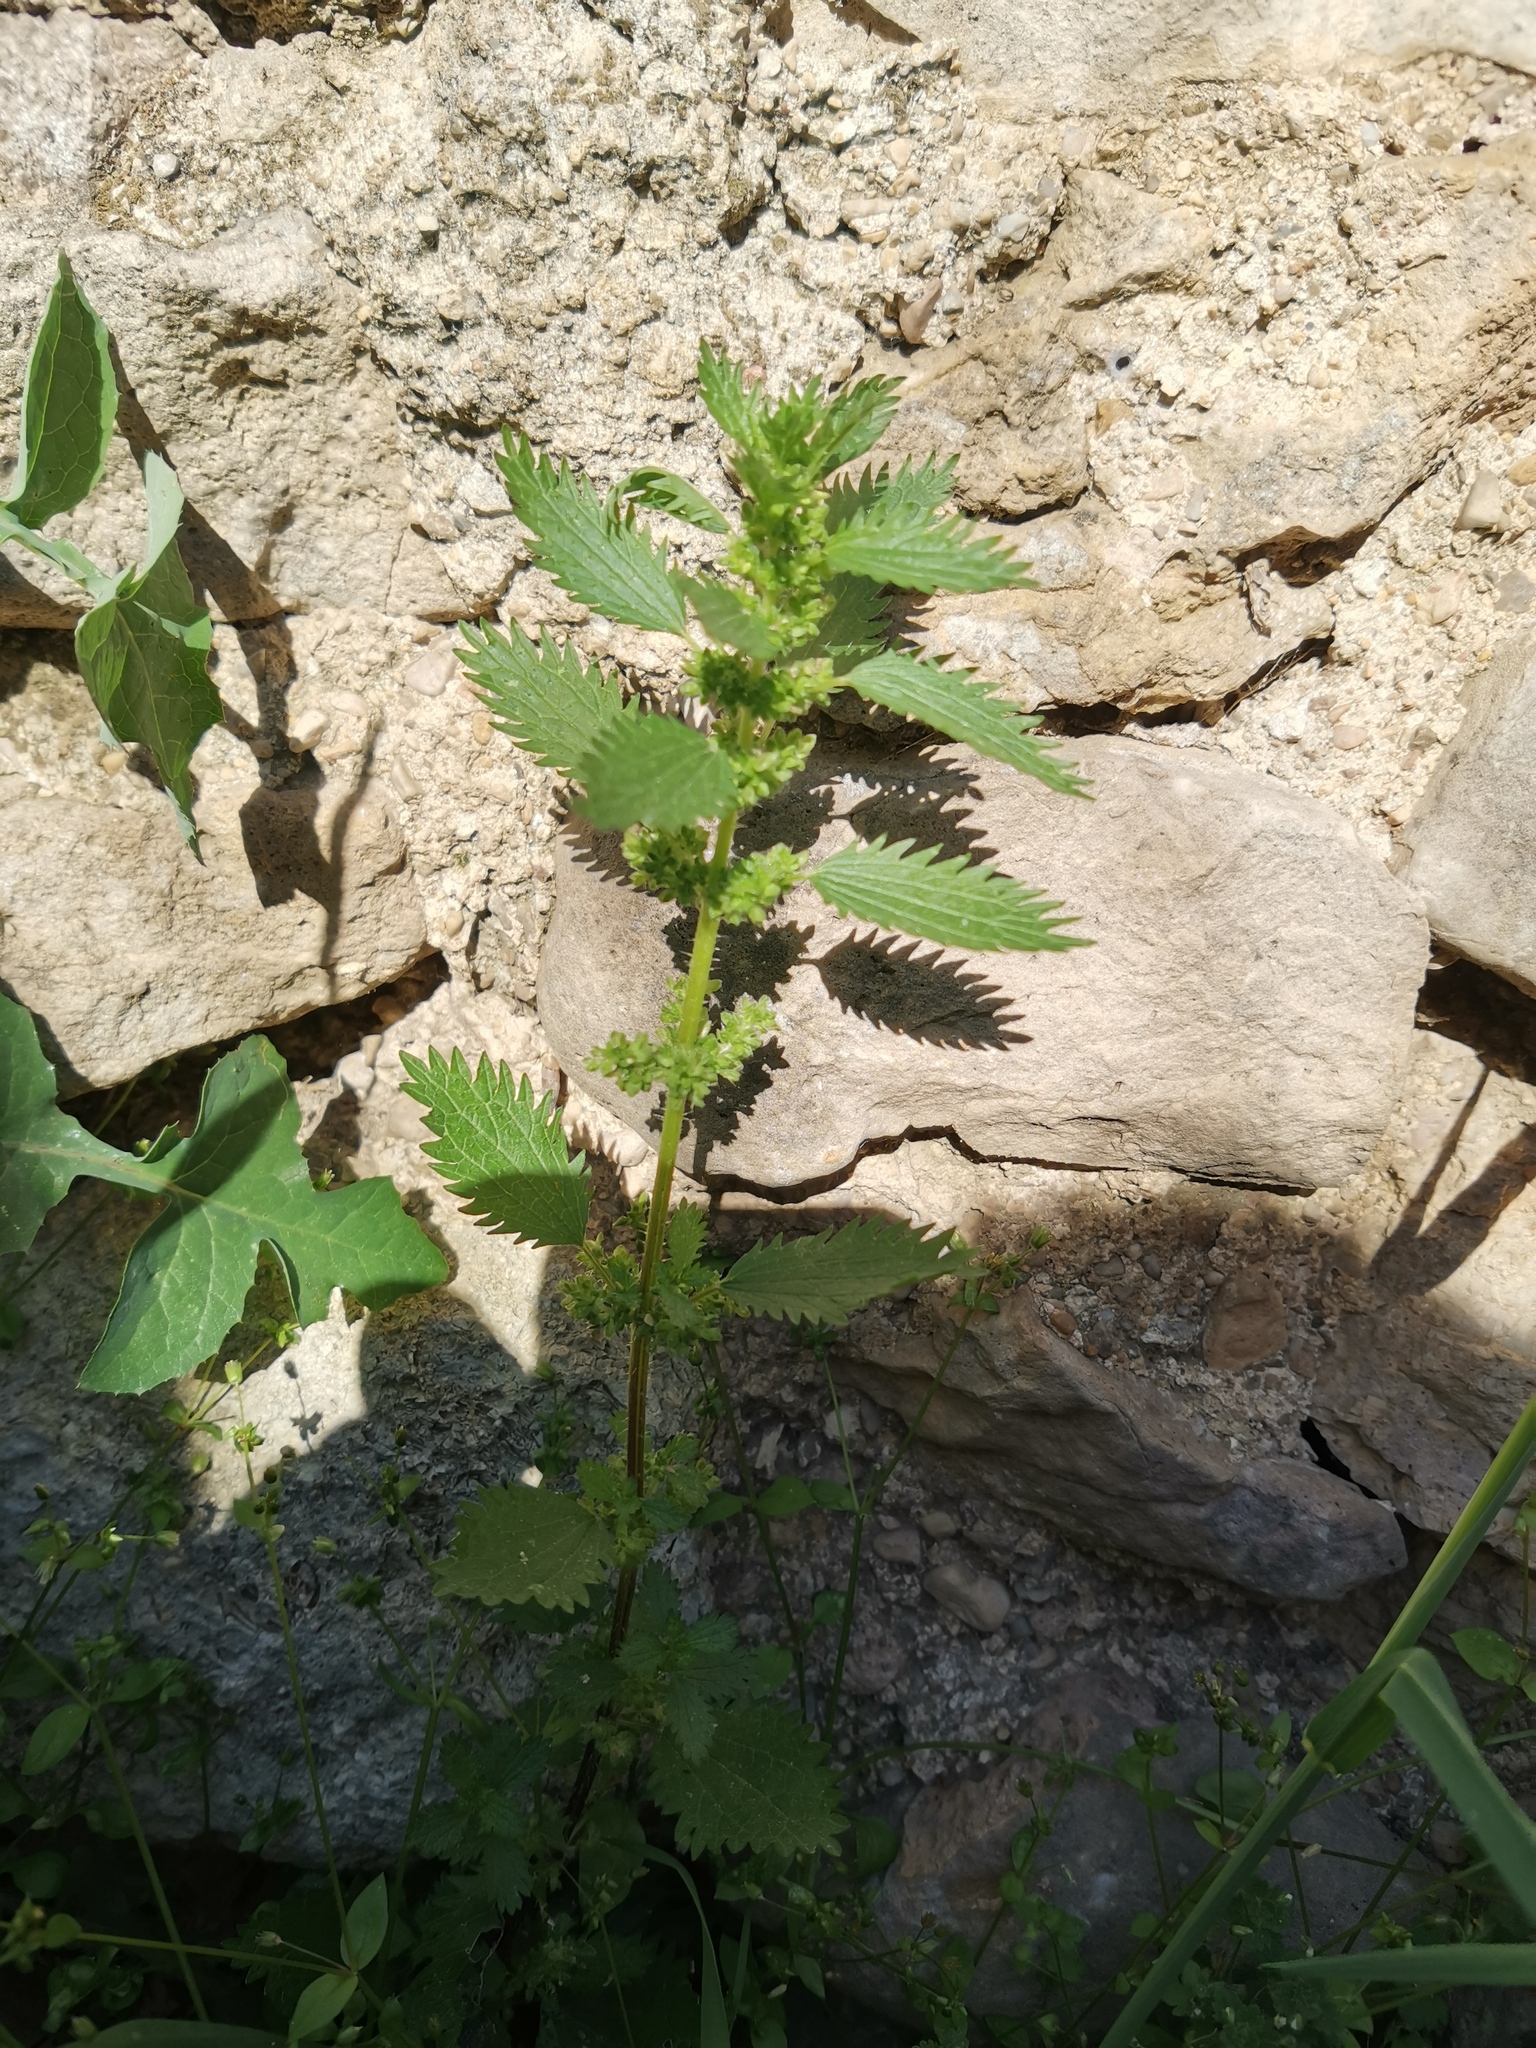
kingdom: Plantae
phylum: Tracheophyta
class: Magnoliopsida
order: Rosales
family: Urticaceae
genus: Urtica
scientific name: Urtica urens
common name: Dwarf nettle
